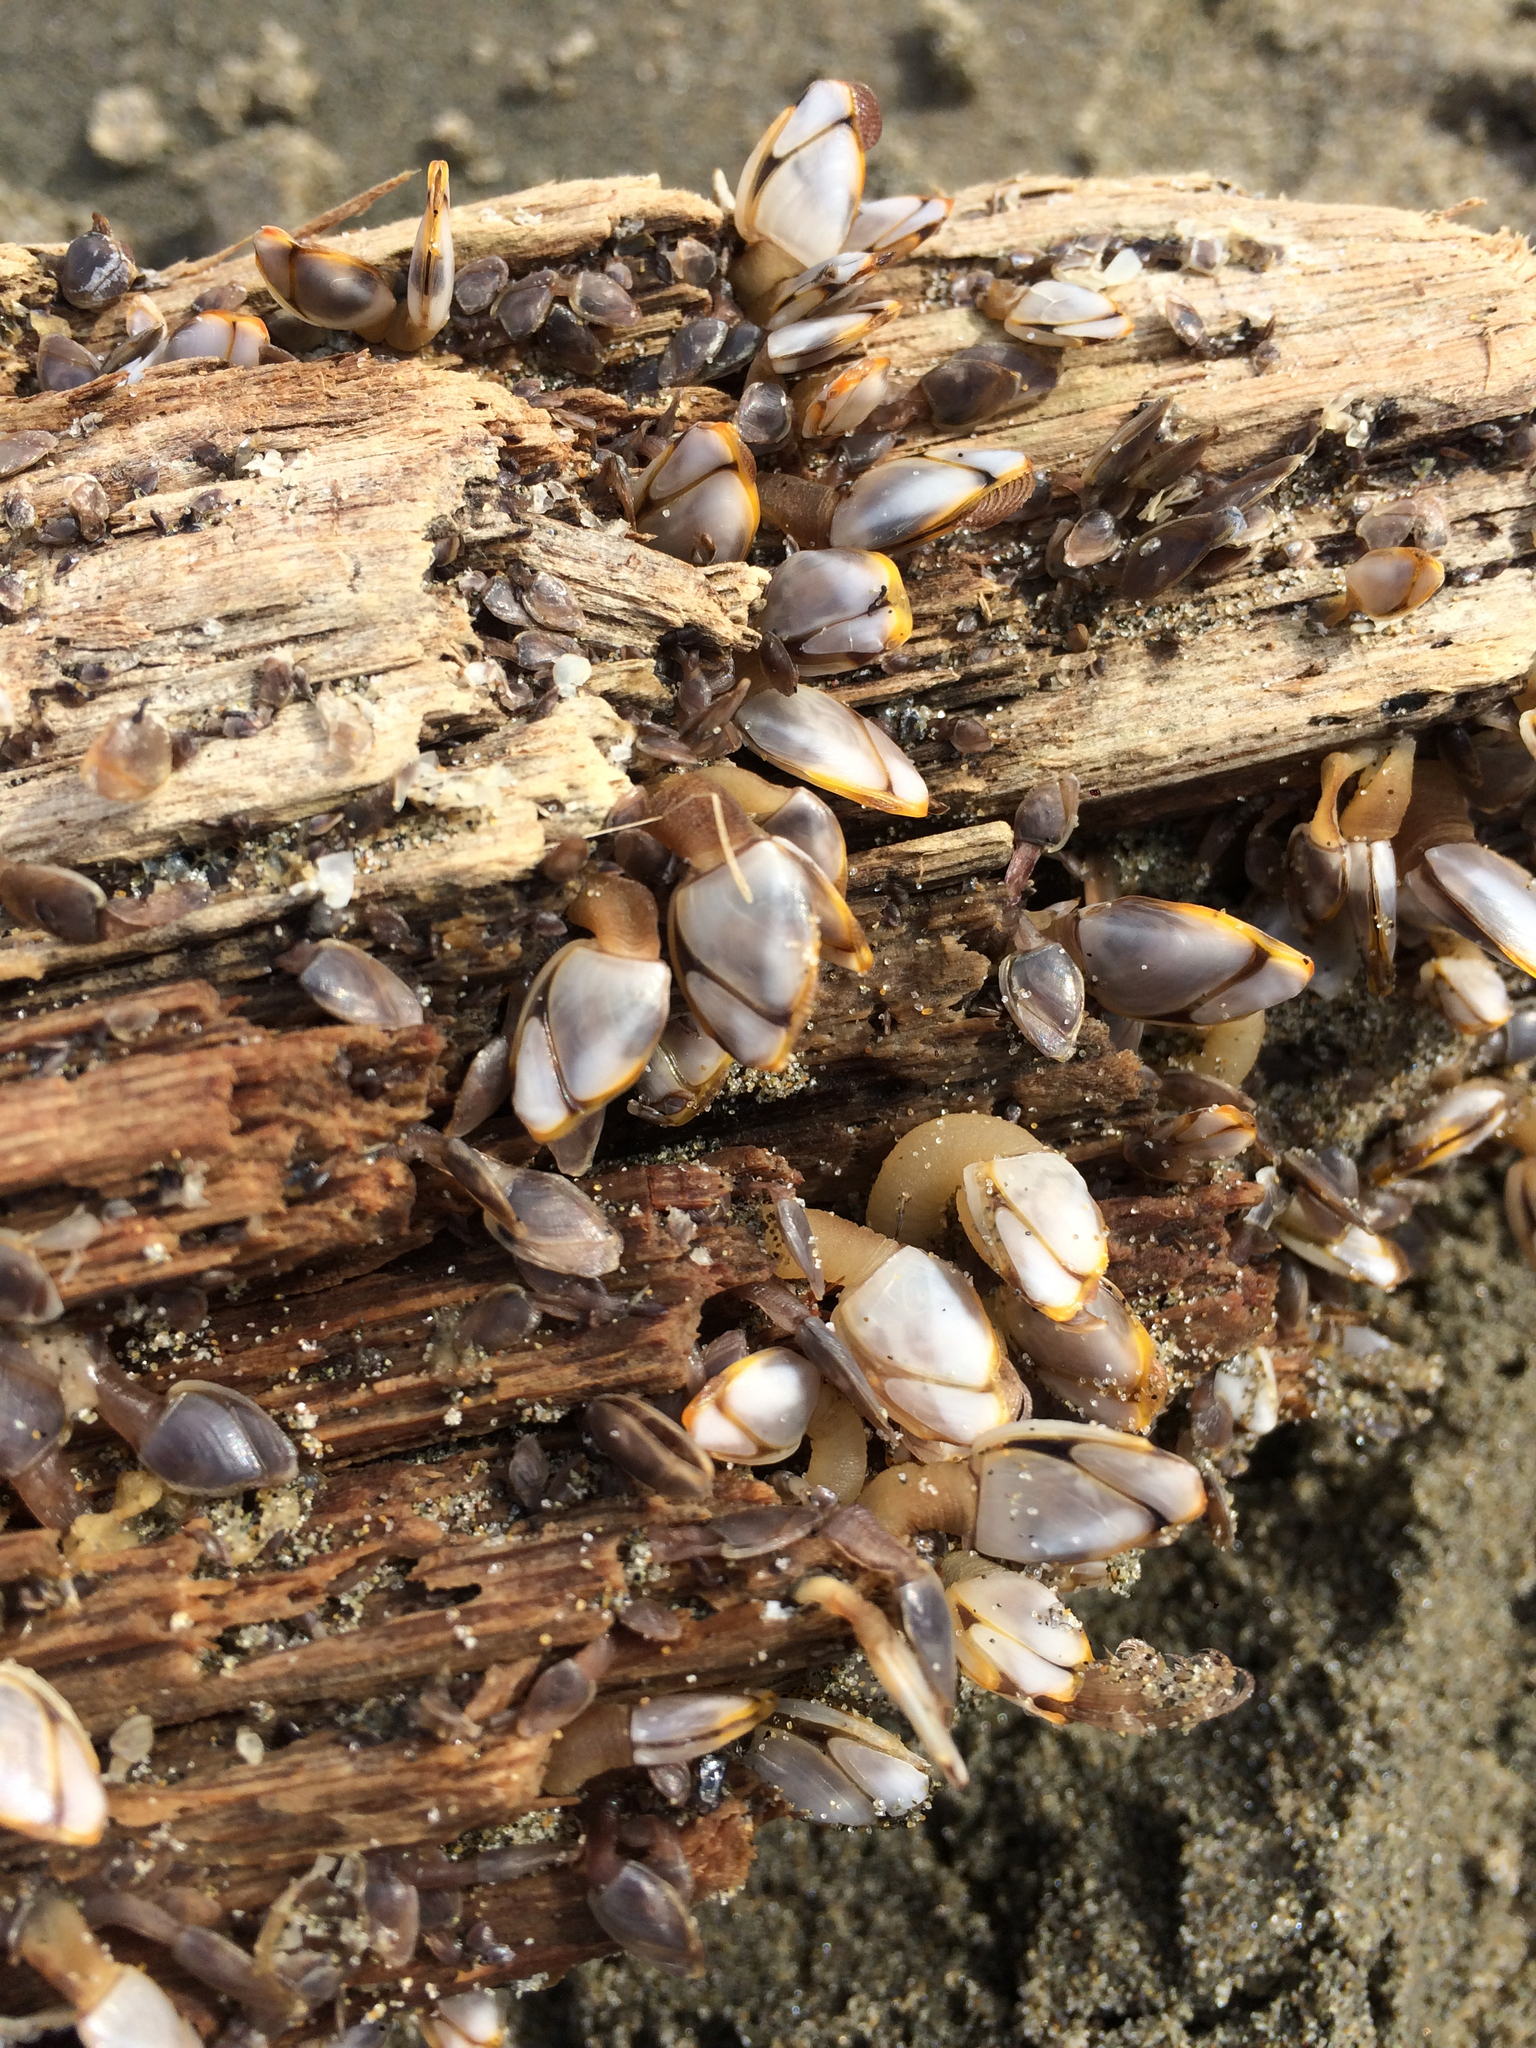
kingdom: Animalia
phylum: Arthropoda
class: Maxillopoda
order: Pedunculata
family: Lepadidae
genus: Lepas
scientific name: Lepas hillii
